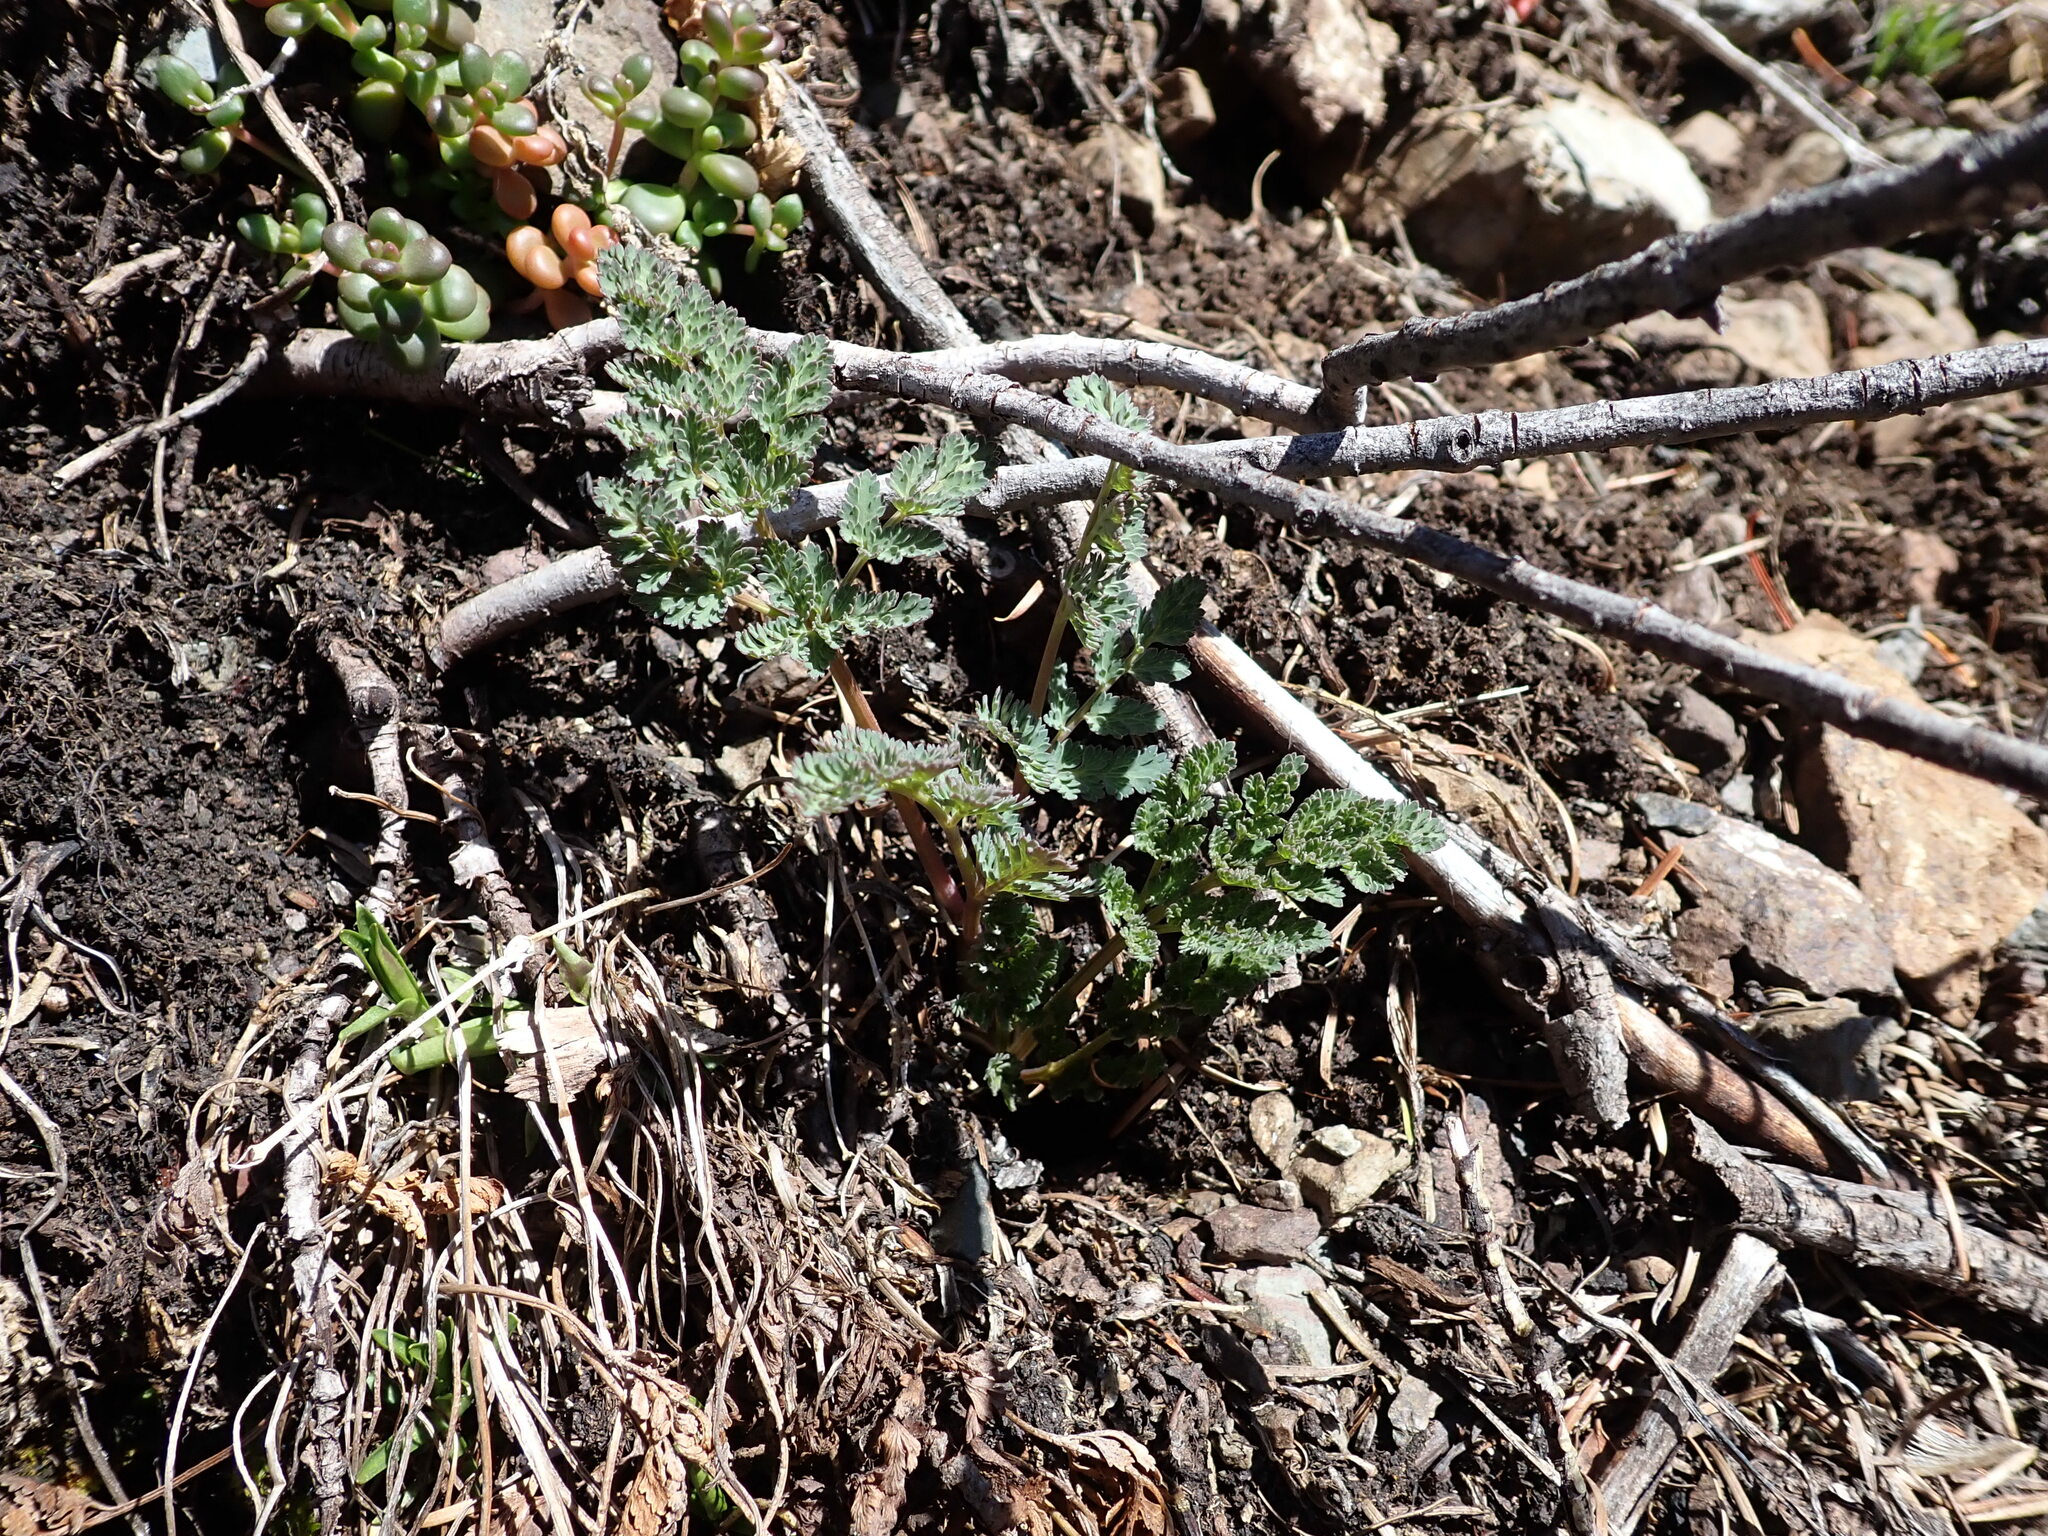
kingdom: Plantae
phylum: Tracheophyta
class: Magnoliopsida
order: Apiales
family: Apiaceae
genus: Lomatium
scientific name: Lomatium martindalei
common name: Cascade desert-parsley
